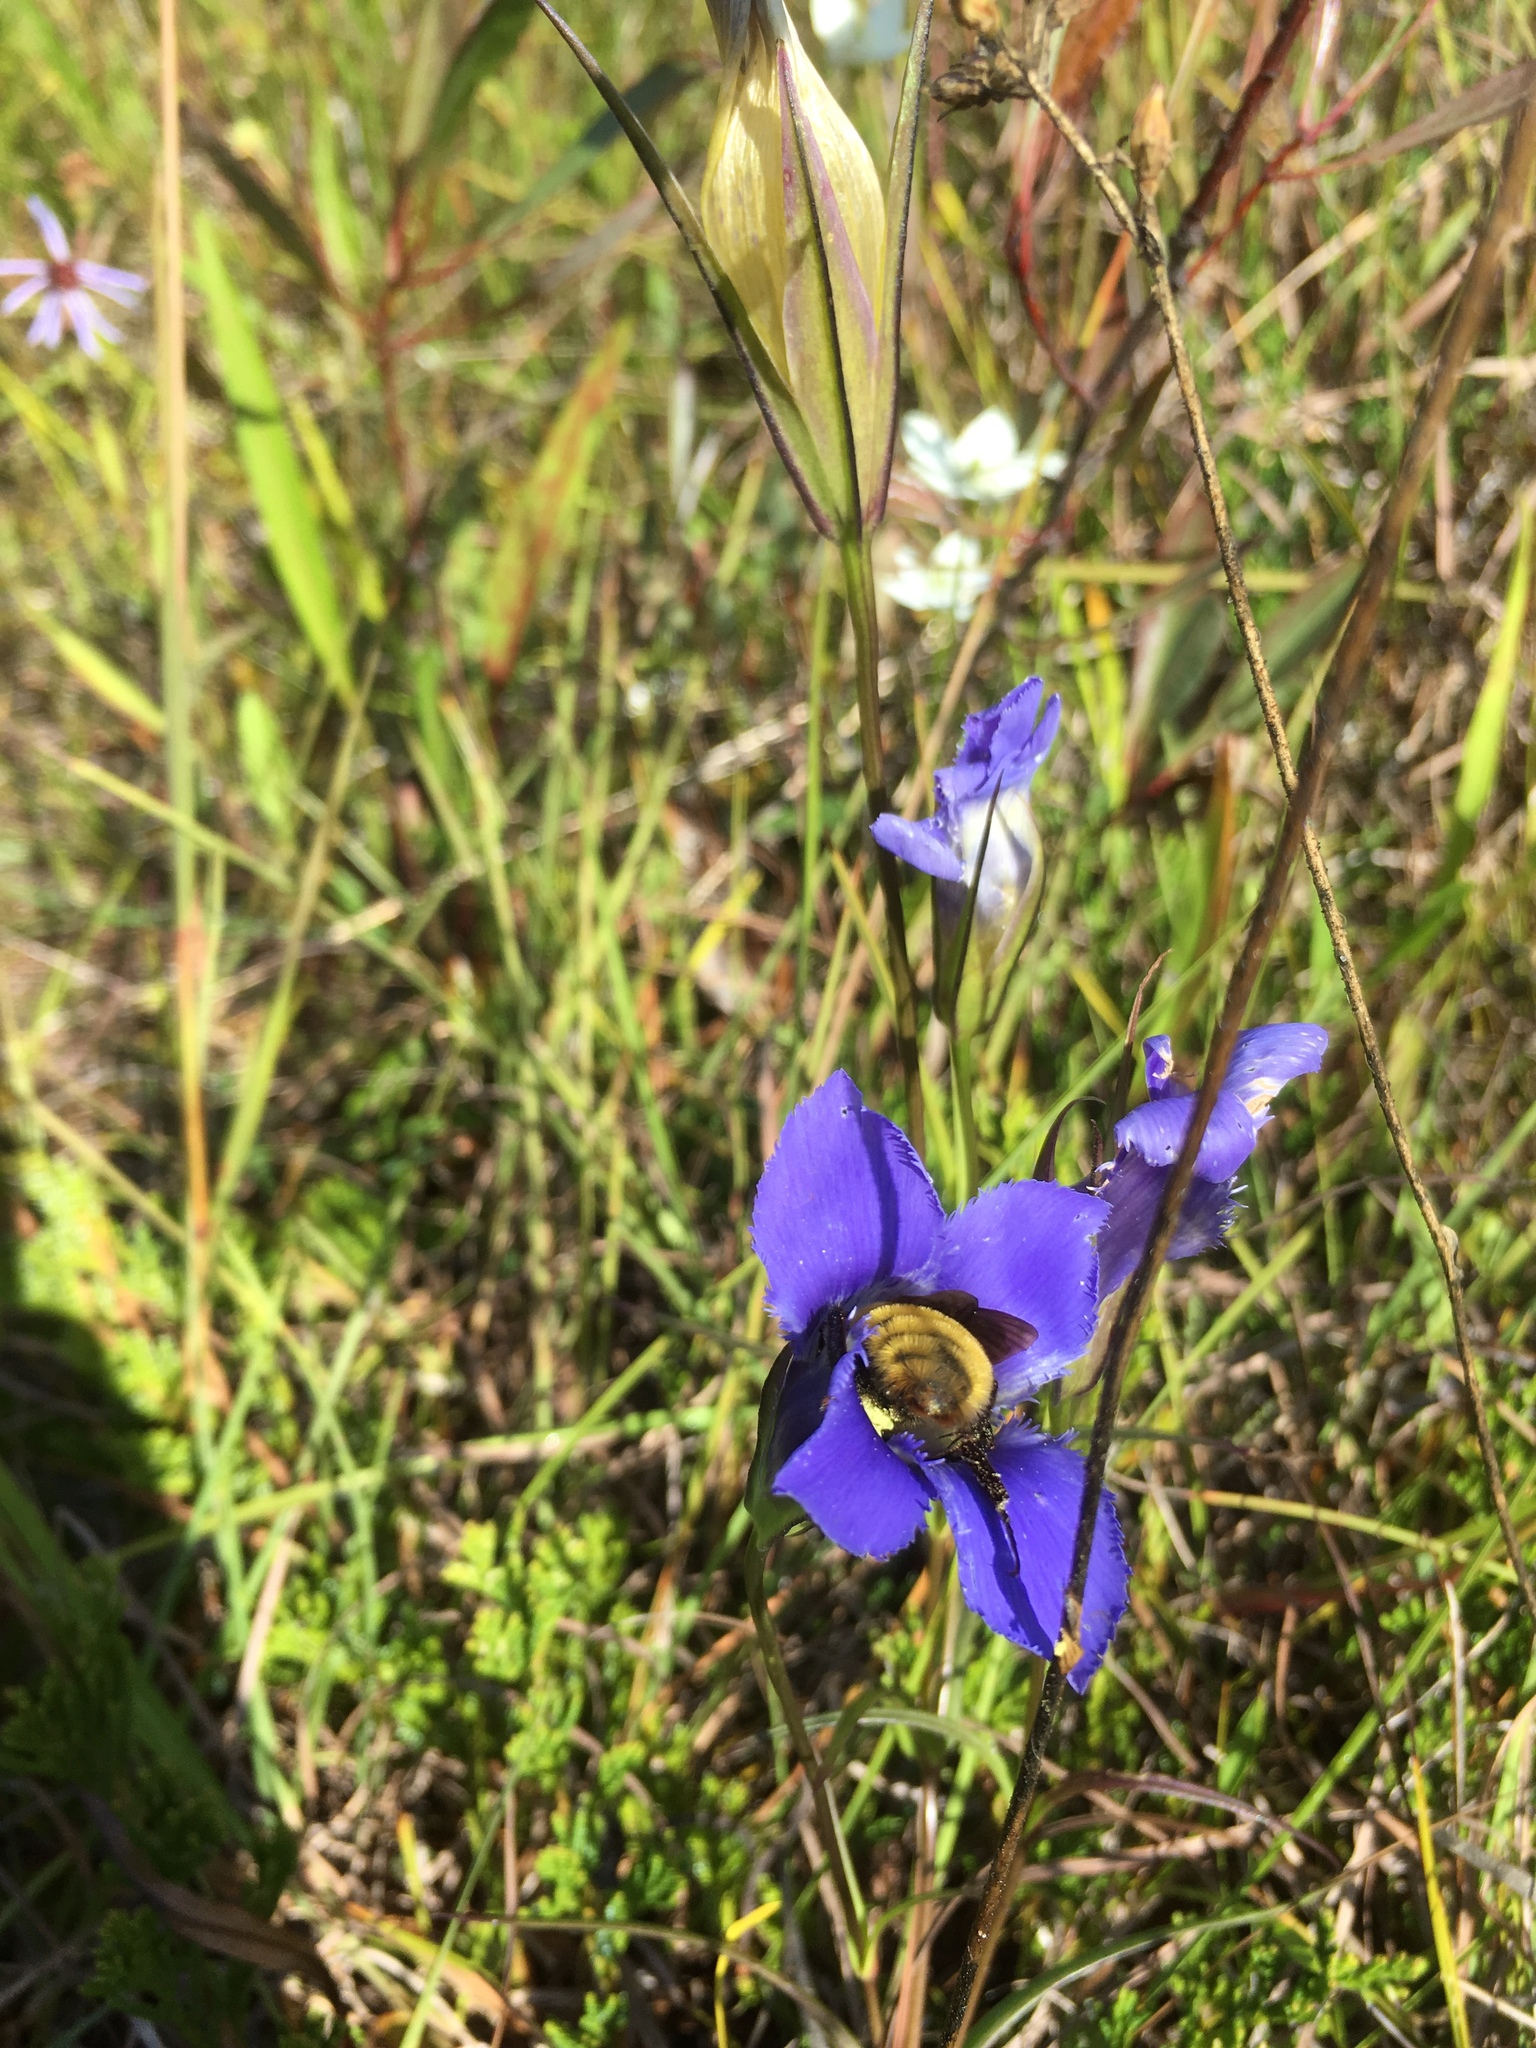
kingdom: Animalia
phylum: Arthropoda
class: Insecta
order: Hymenoptera
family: Apidae
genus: Bombus
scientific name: Bombus pensylvanicus
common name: Bumble bee
